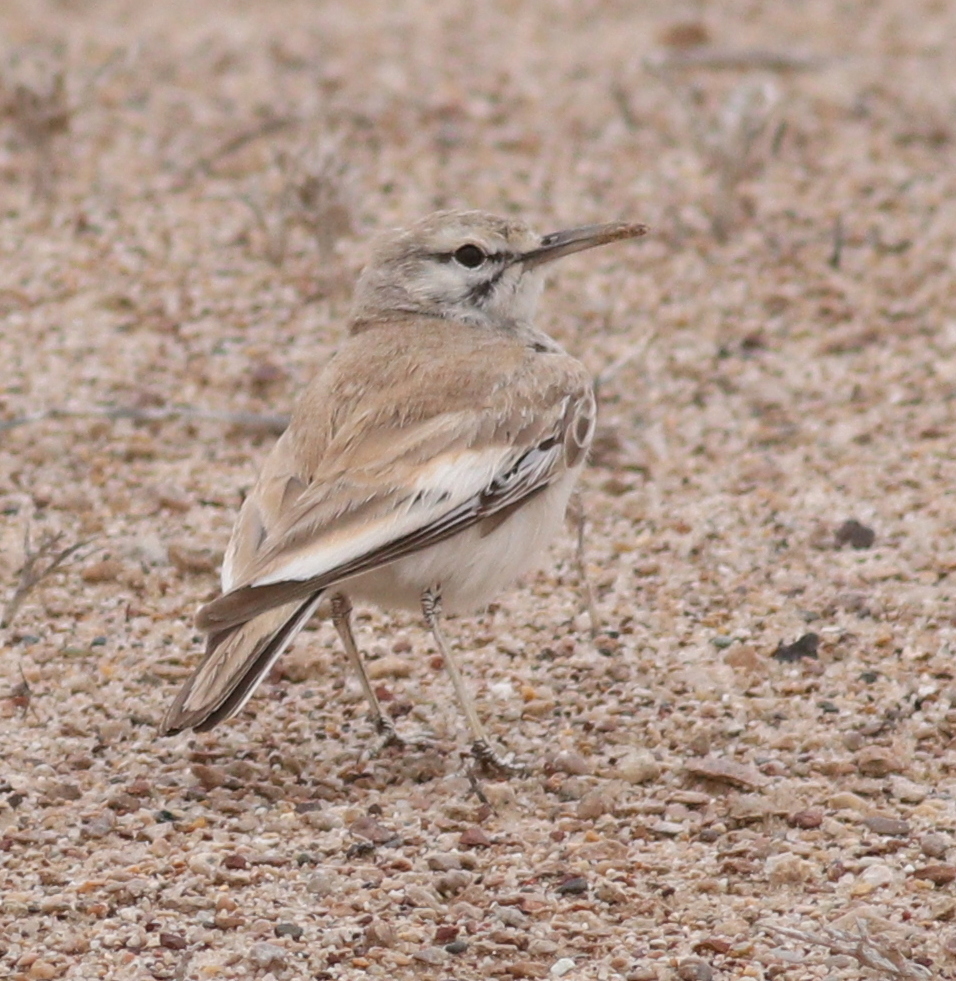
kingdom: Animalia
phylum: Chordata
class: Aves
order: Passeriformes
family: Alaudidae
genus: Alaemon
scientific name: Alaemon alaudipes
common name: Greater hoopoe-lark
